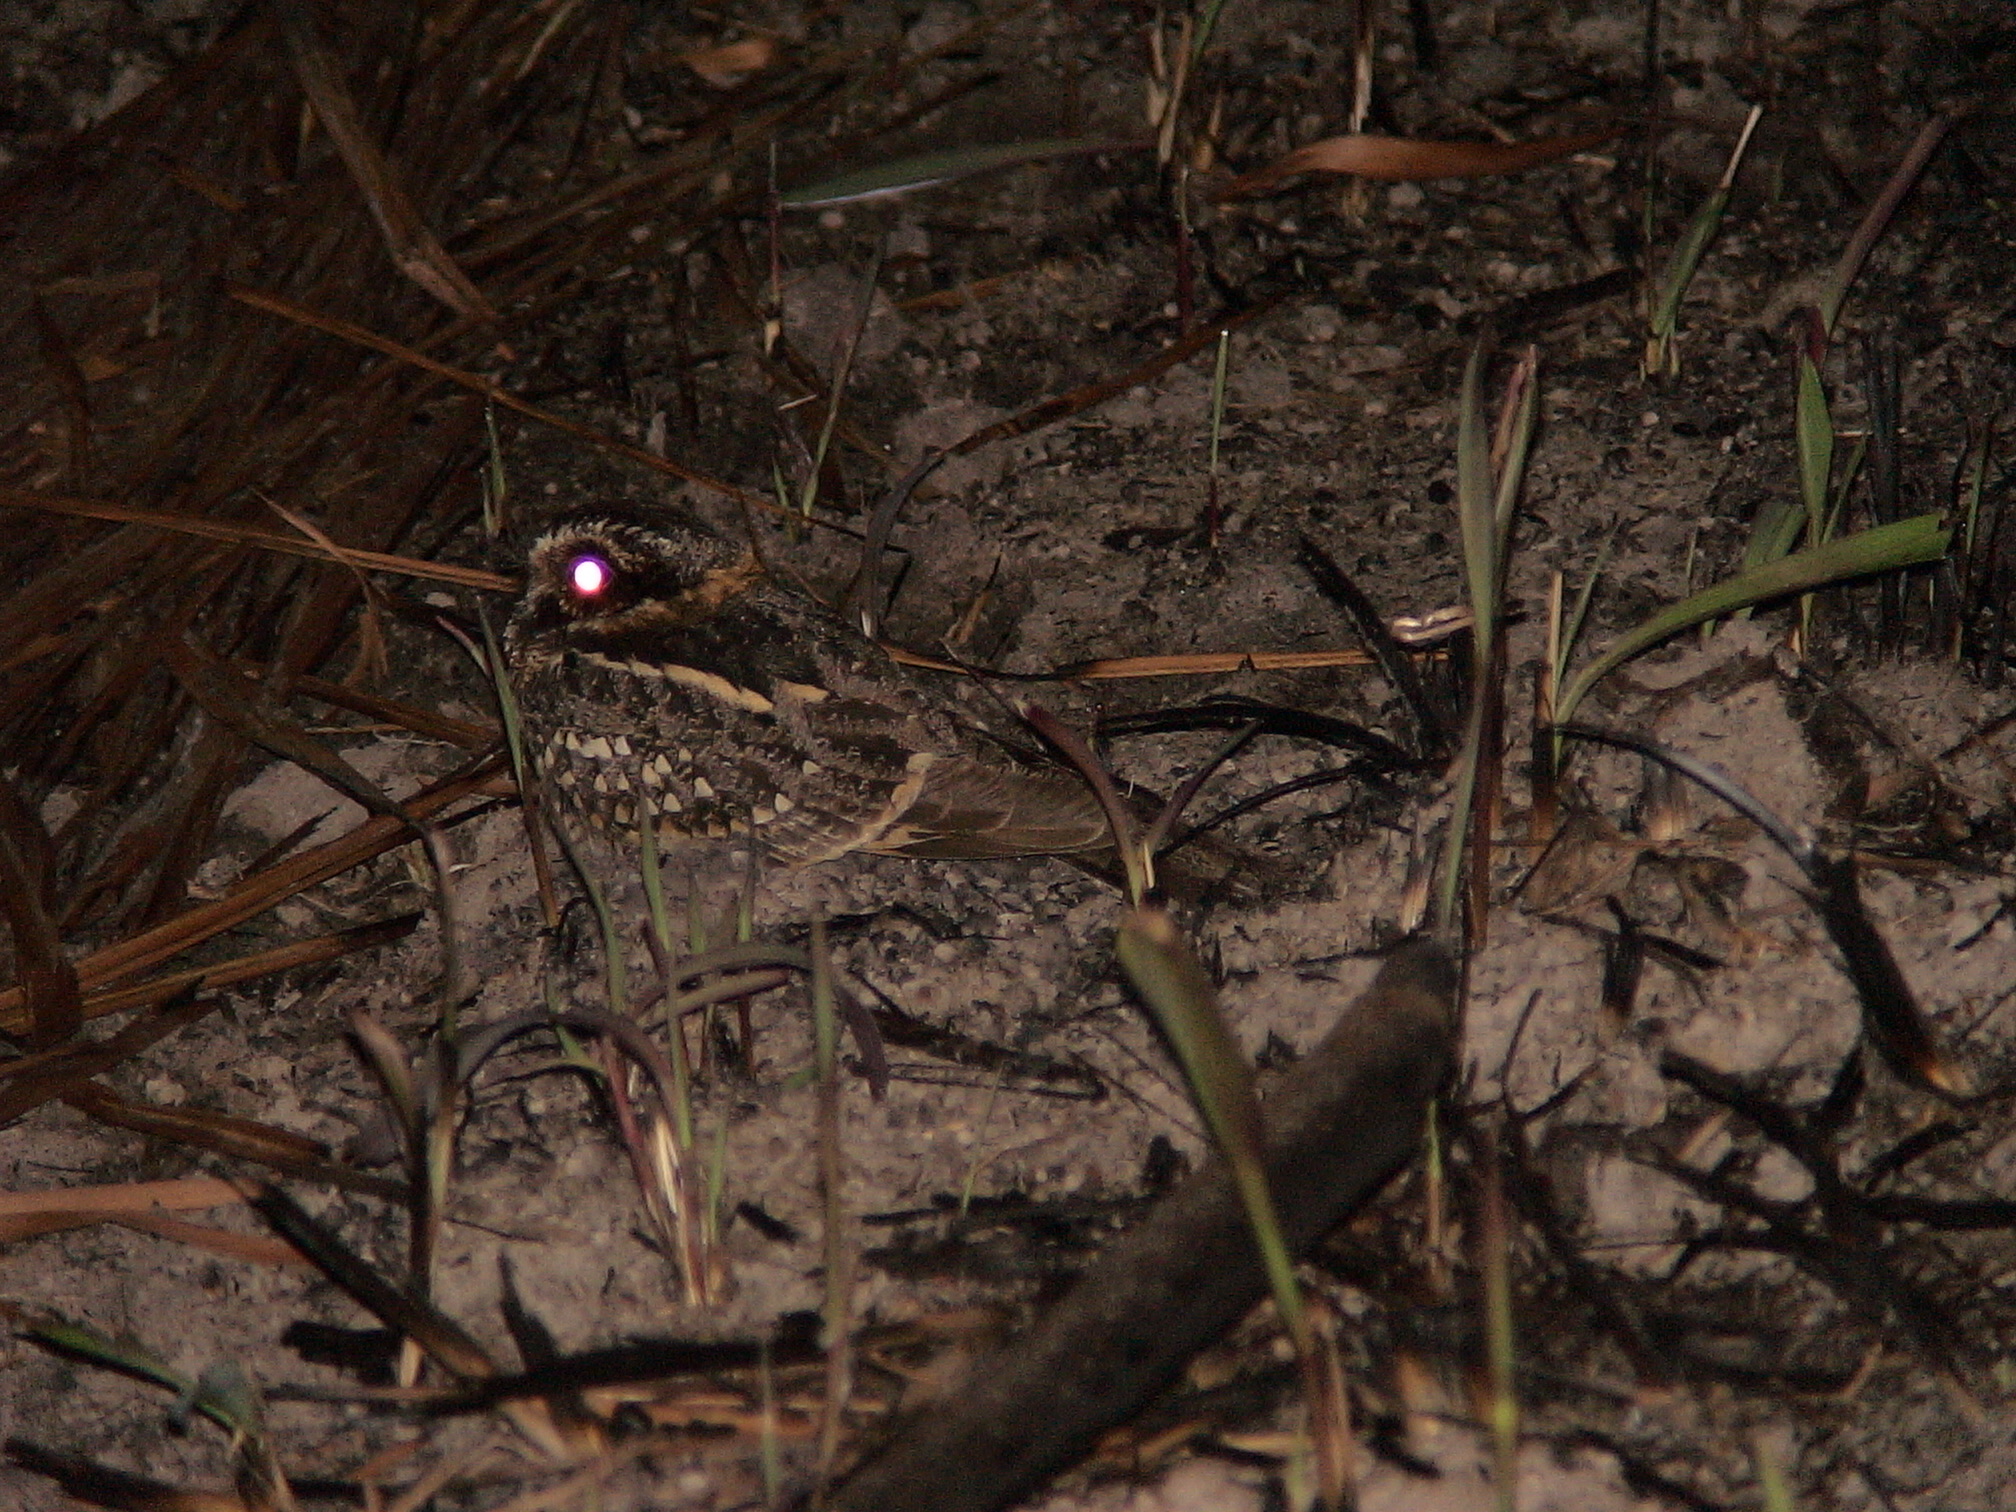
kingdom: Animalia
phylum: Chordata
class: Aves
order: Caprimulgiformes
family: Caprimulgidae
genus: Hydropsalis
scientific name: Hydropsalis maculicaudus
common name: Spot-tailed nightjar
